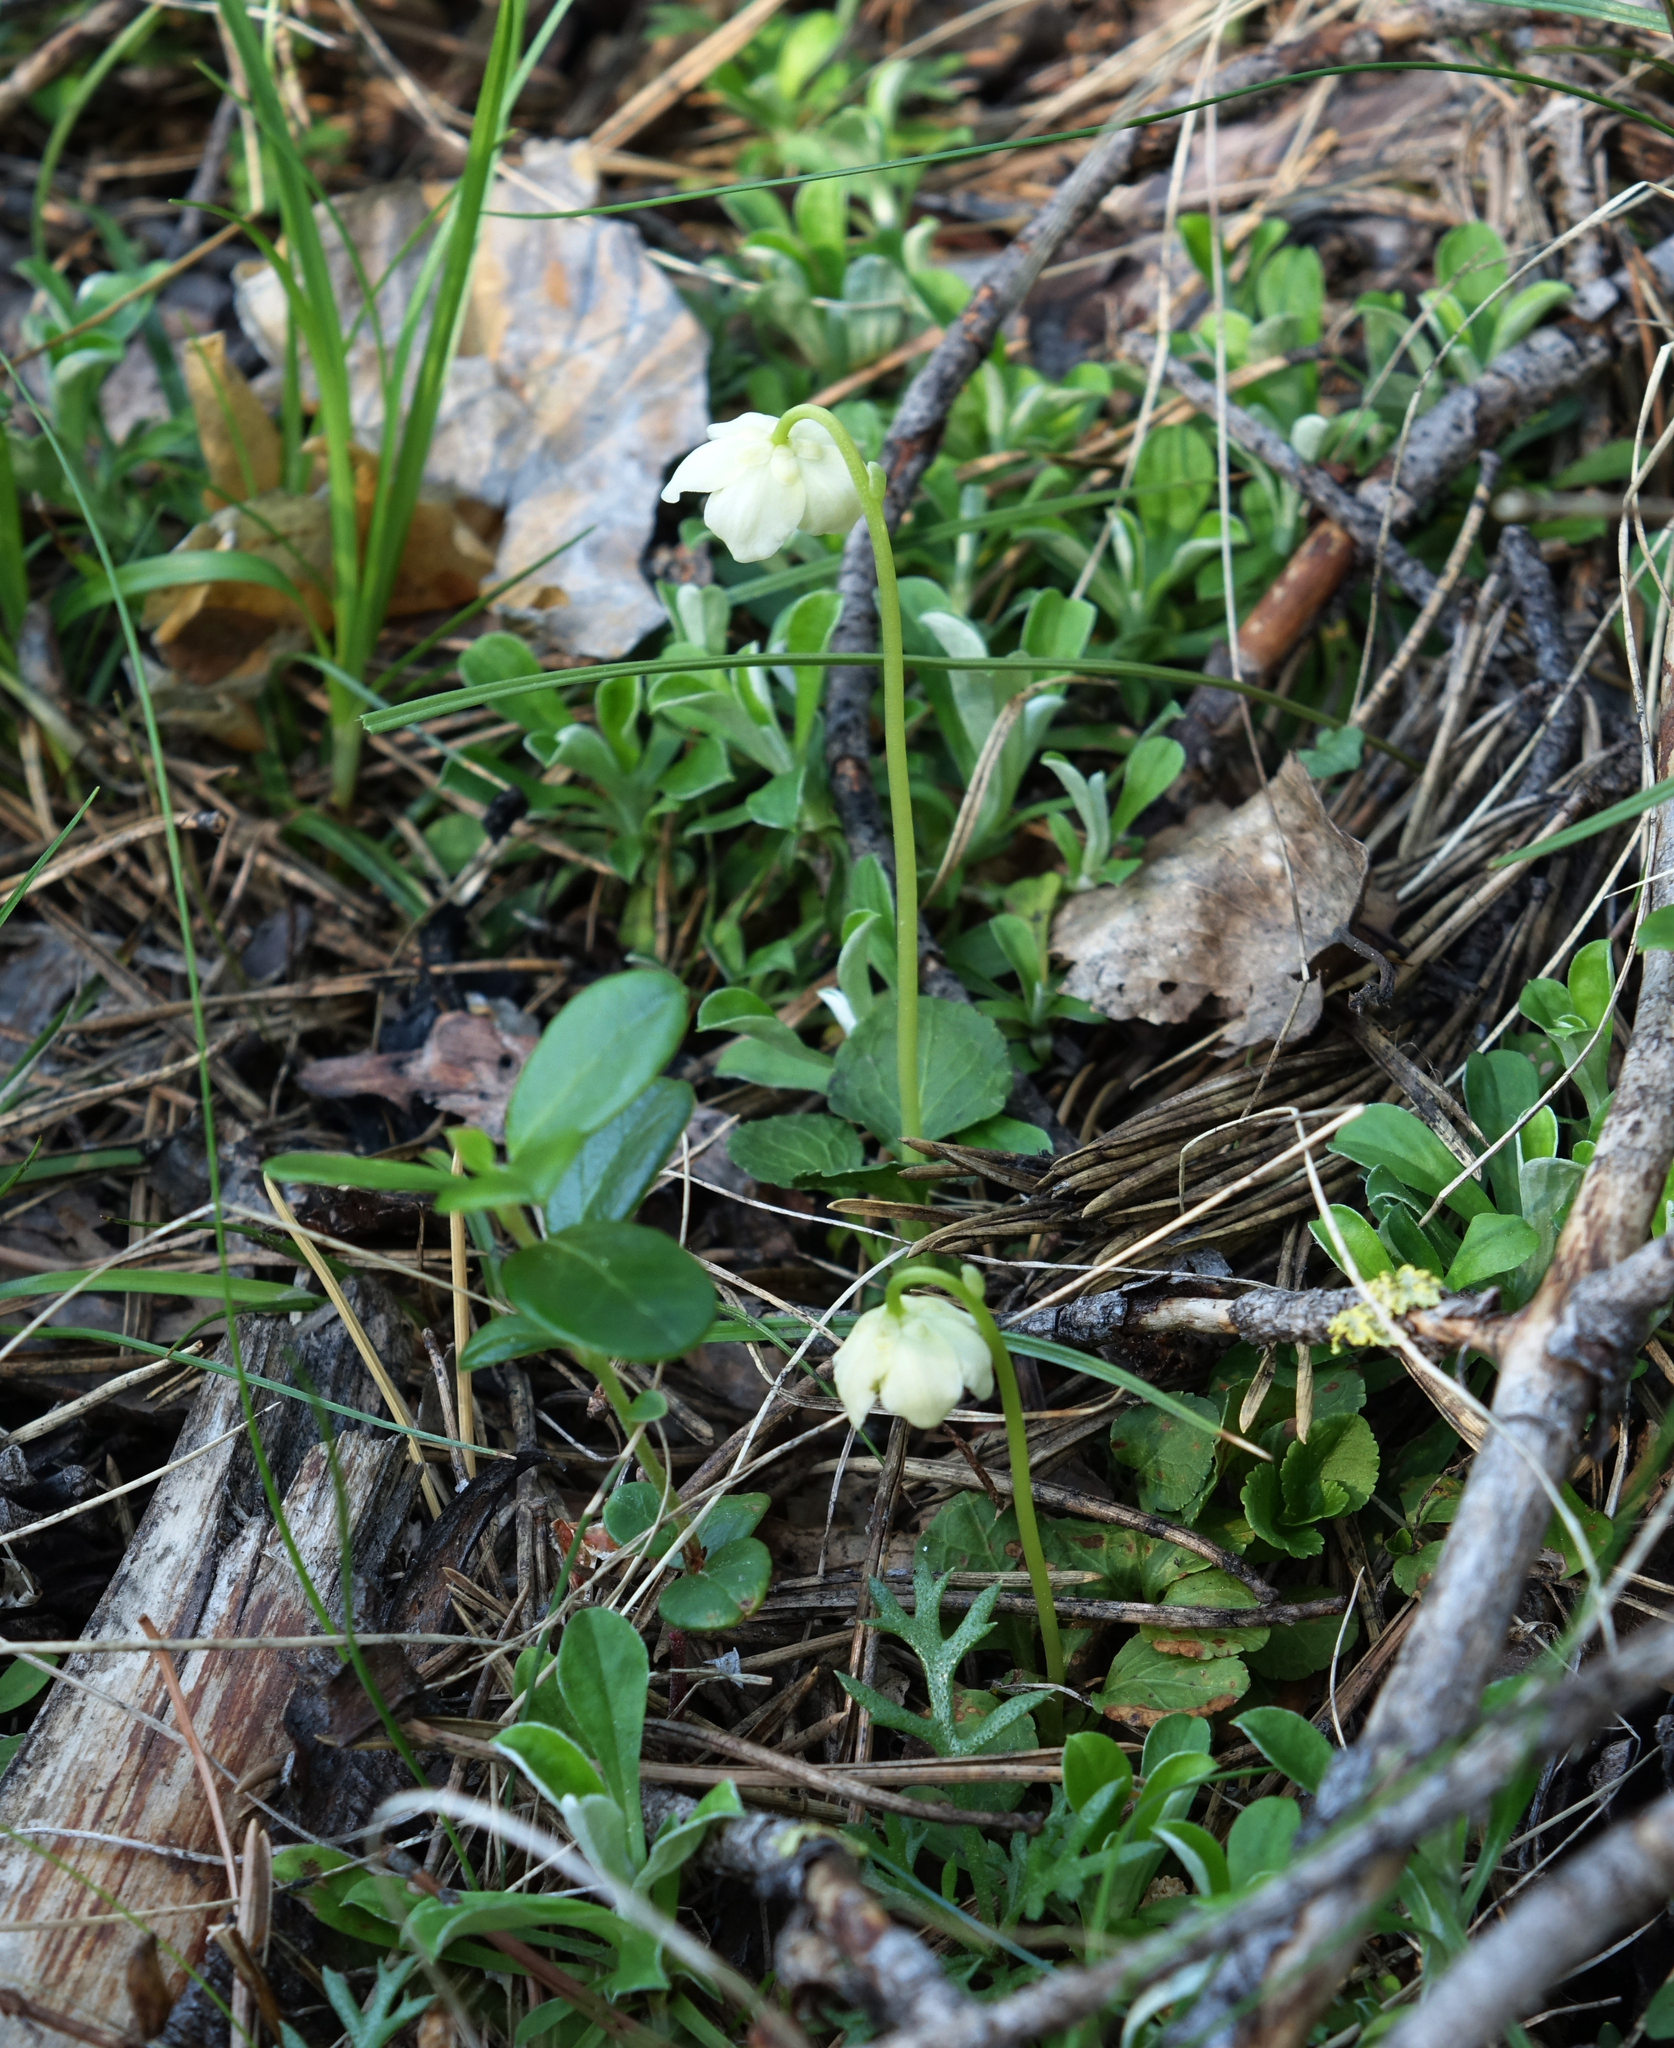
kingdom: Plantae
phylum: Tracheophyta
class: Magnoliopsida
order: Ericales
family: Ericaceae
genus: Moneses
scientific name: Moneses uniflora
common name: One-flowered wintergreen
